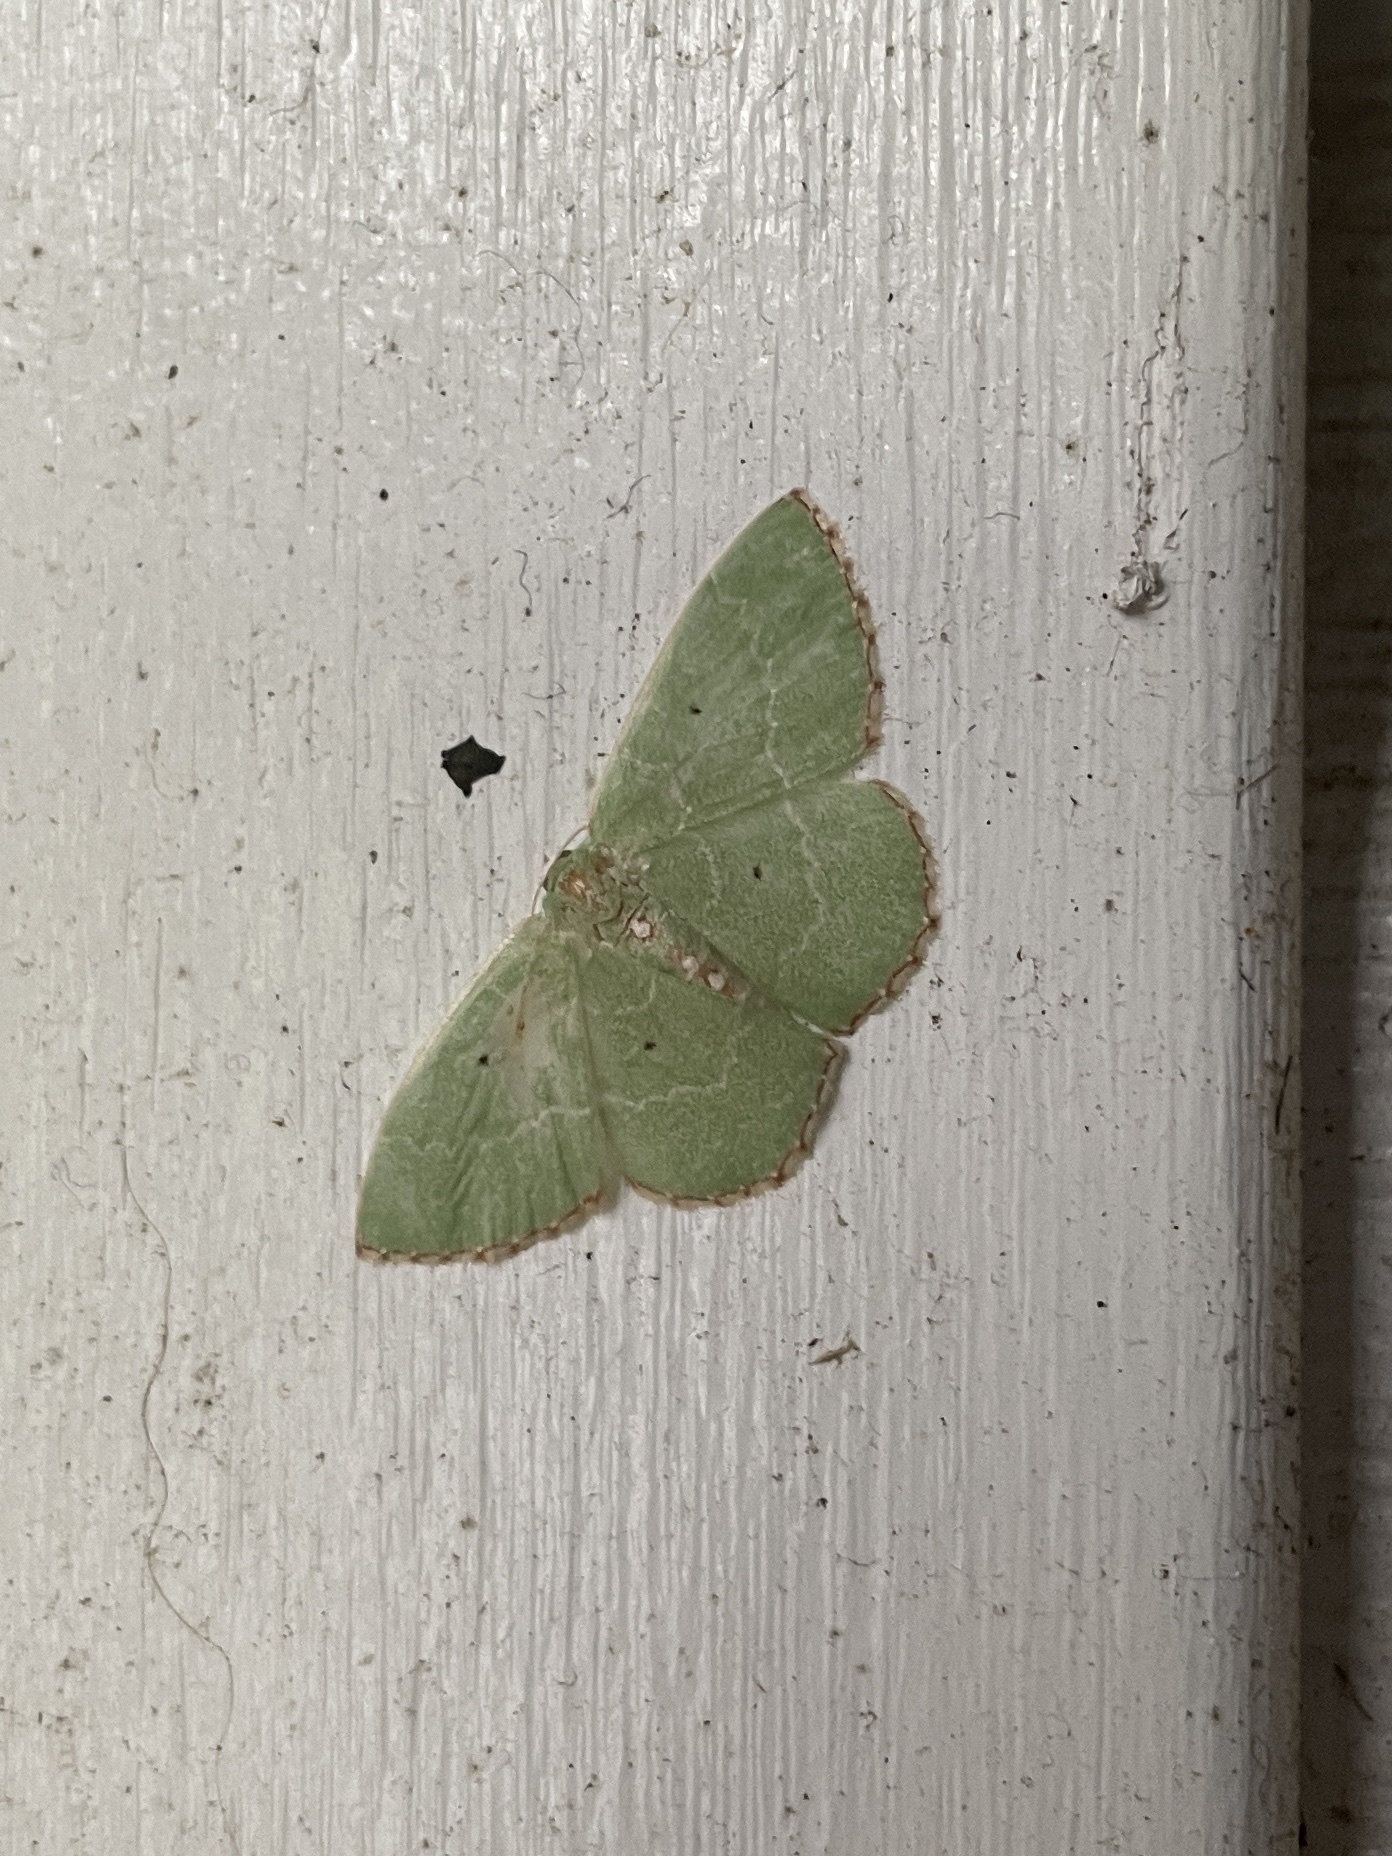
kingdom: Animalia
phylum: Arthropoda
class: Insecta
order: Lepidoptera
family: Geometridae
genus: Nemoria
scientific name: Nemoria lixaria
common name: Red-bordered emerald
